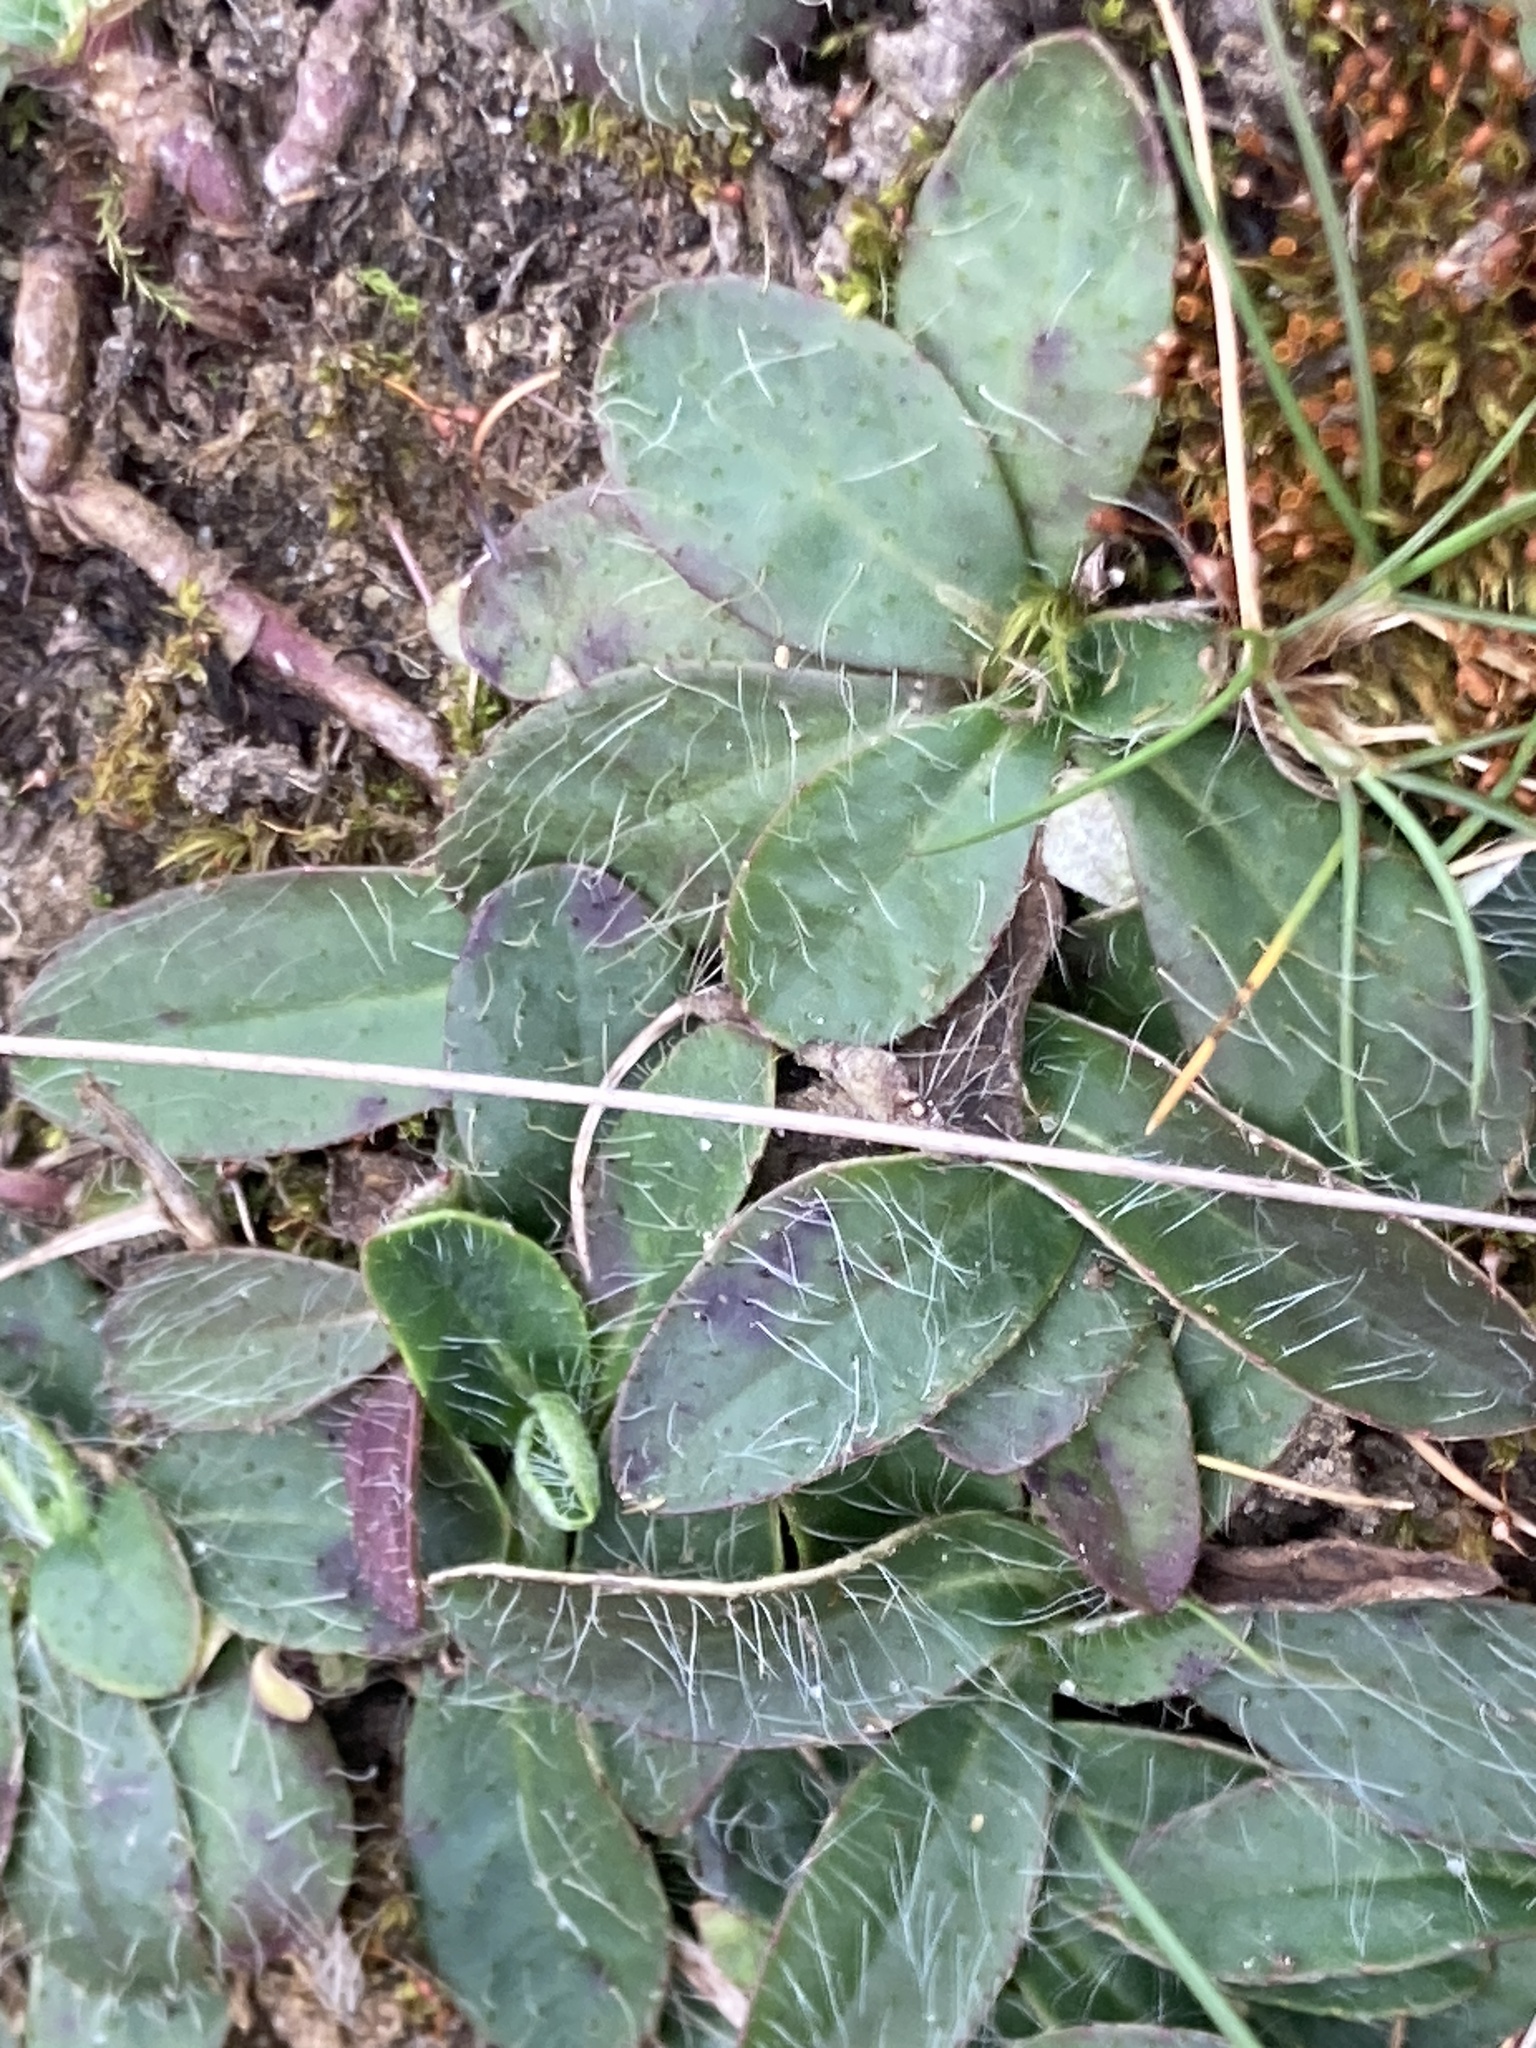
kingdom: Plantae
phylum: Tracheophyta
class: Magnoliopsida
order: Asterales
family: Asteraceae
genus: Pilosella
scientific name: Pilosella officinarum
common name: Mouse-ear hawkweed
